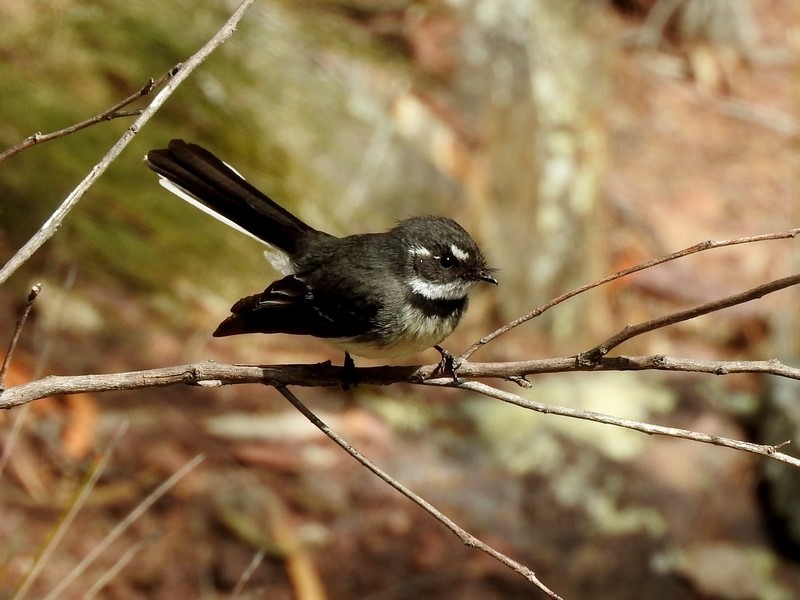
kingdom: Animalia
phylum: Chordata
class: Aves
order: Passeriformes
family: Rhipiduridae
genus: Rhipidura
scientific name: Rhipidura albiscapa
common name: Grey fantail
